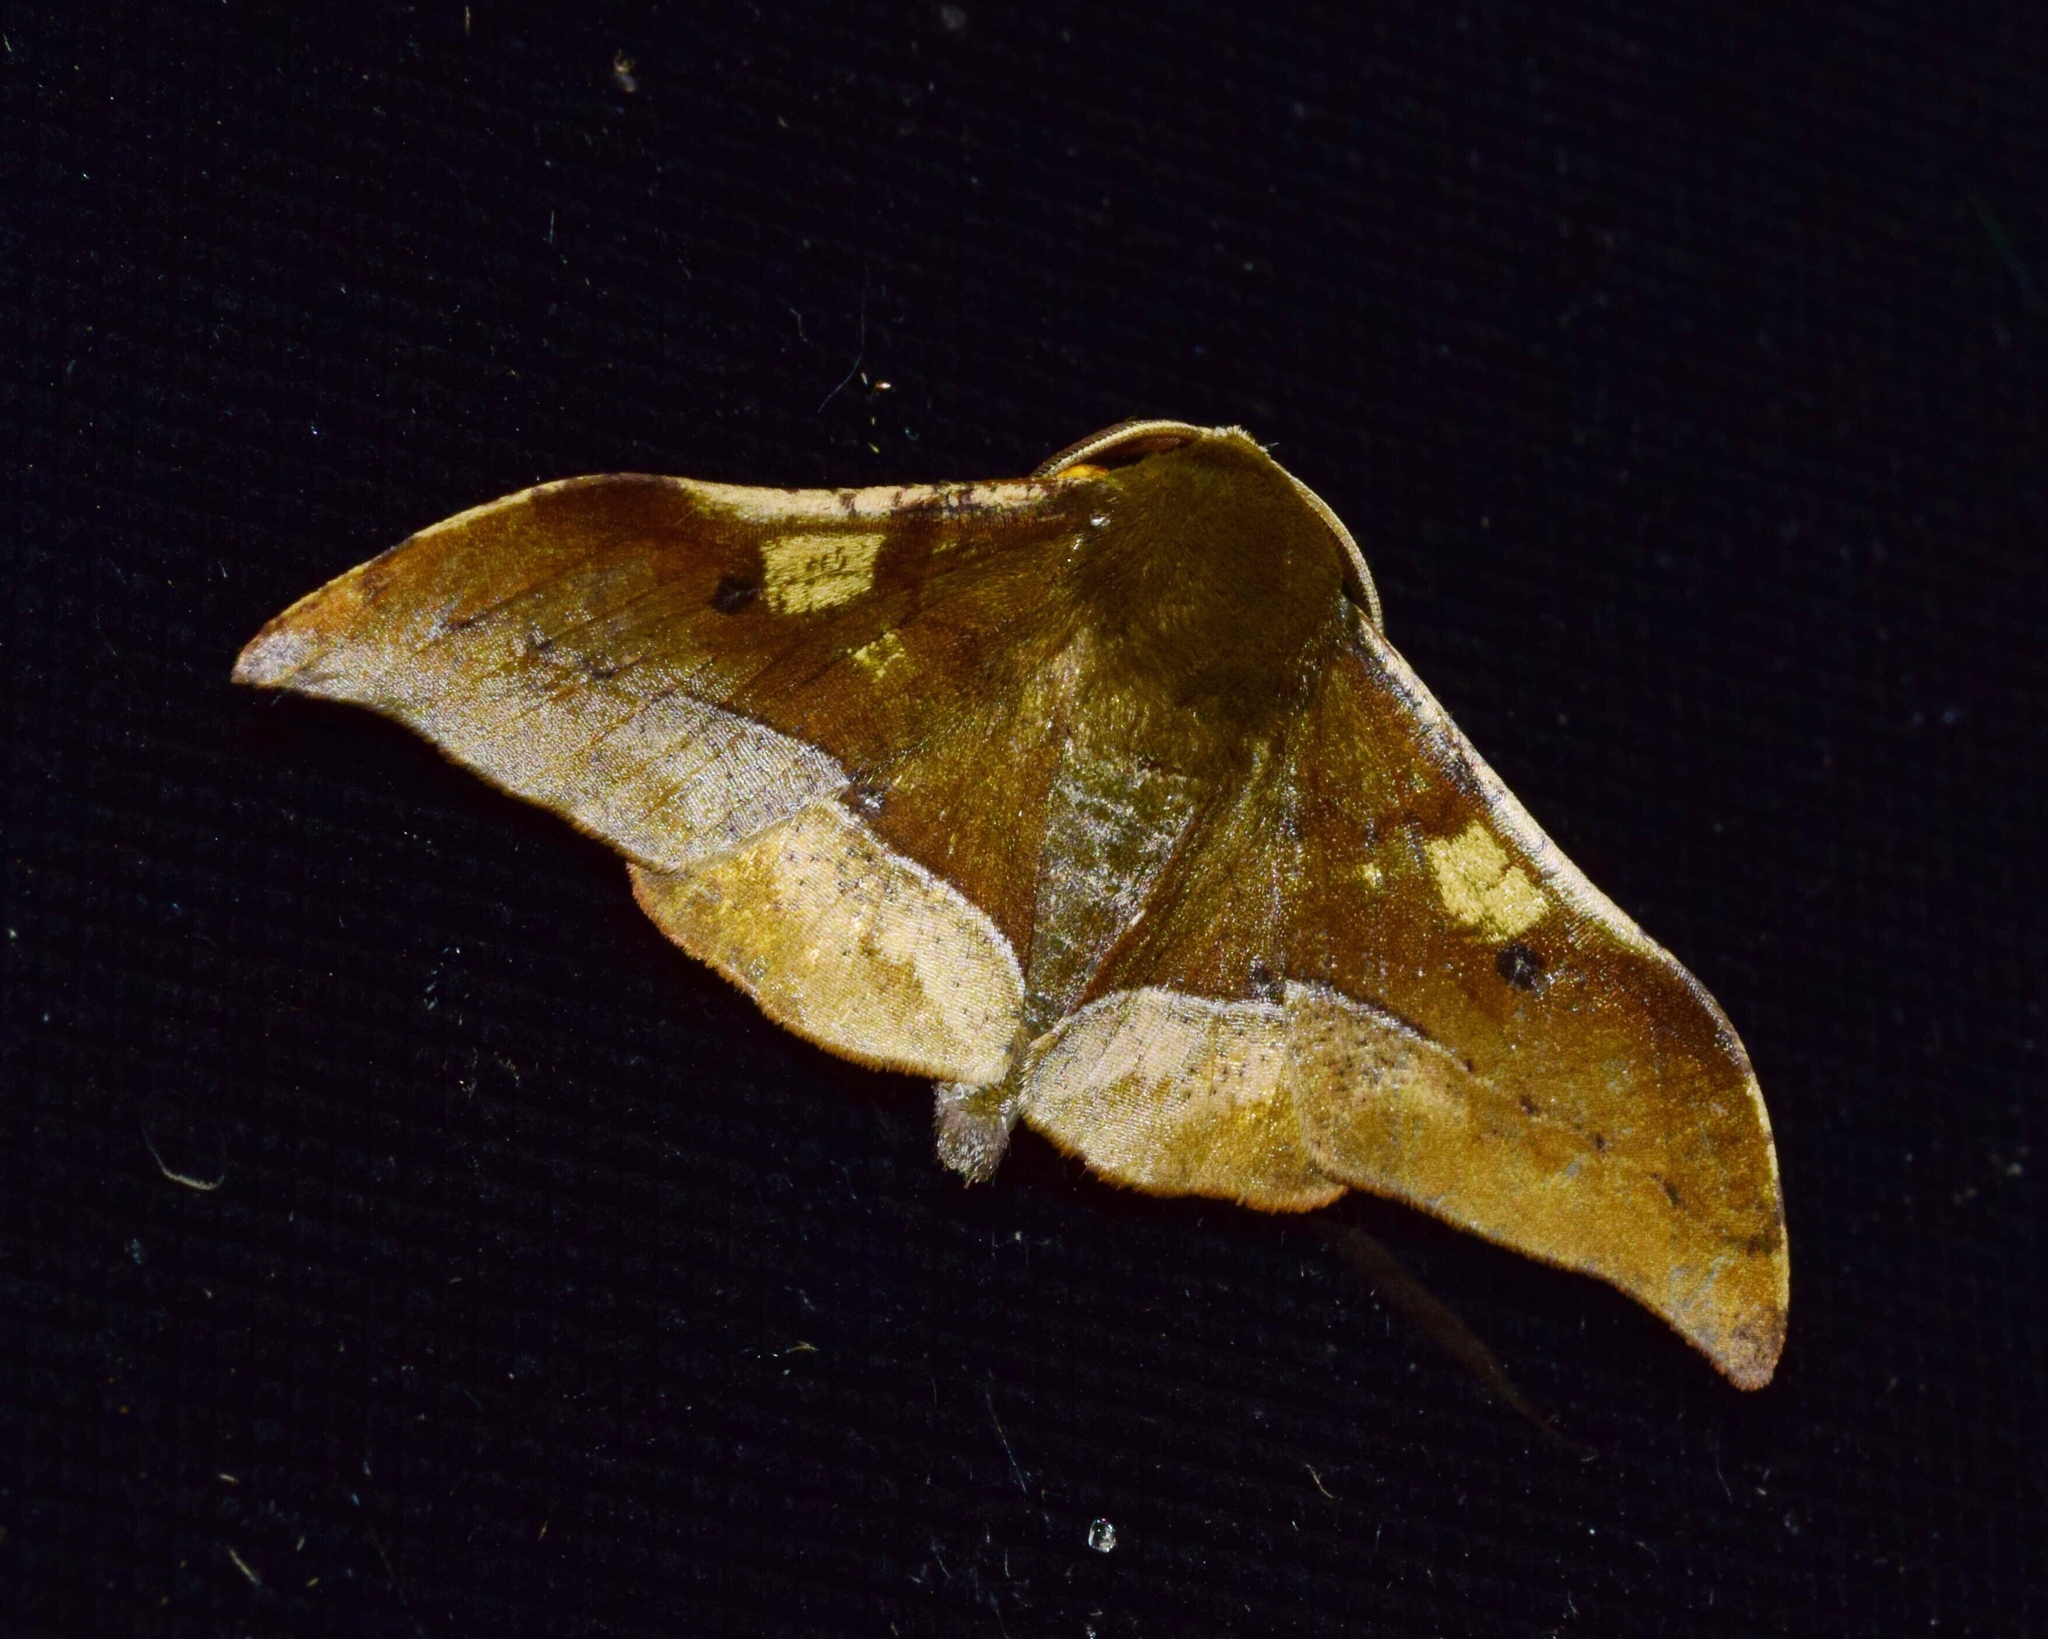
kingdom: Animalia
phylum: Arthropoda
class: Insecta
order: Lepidoptera
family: Geometridae
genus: Plegapteryx
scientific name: Plegapteryx anomalus
